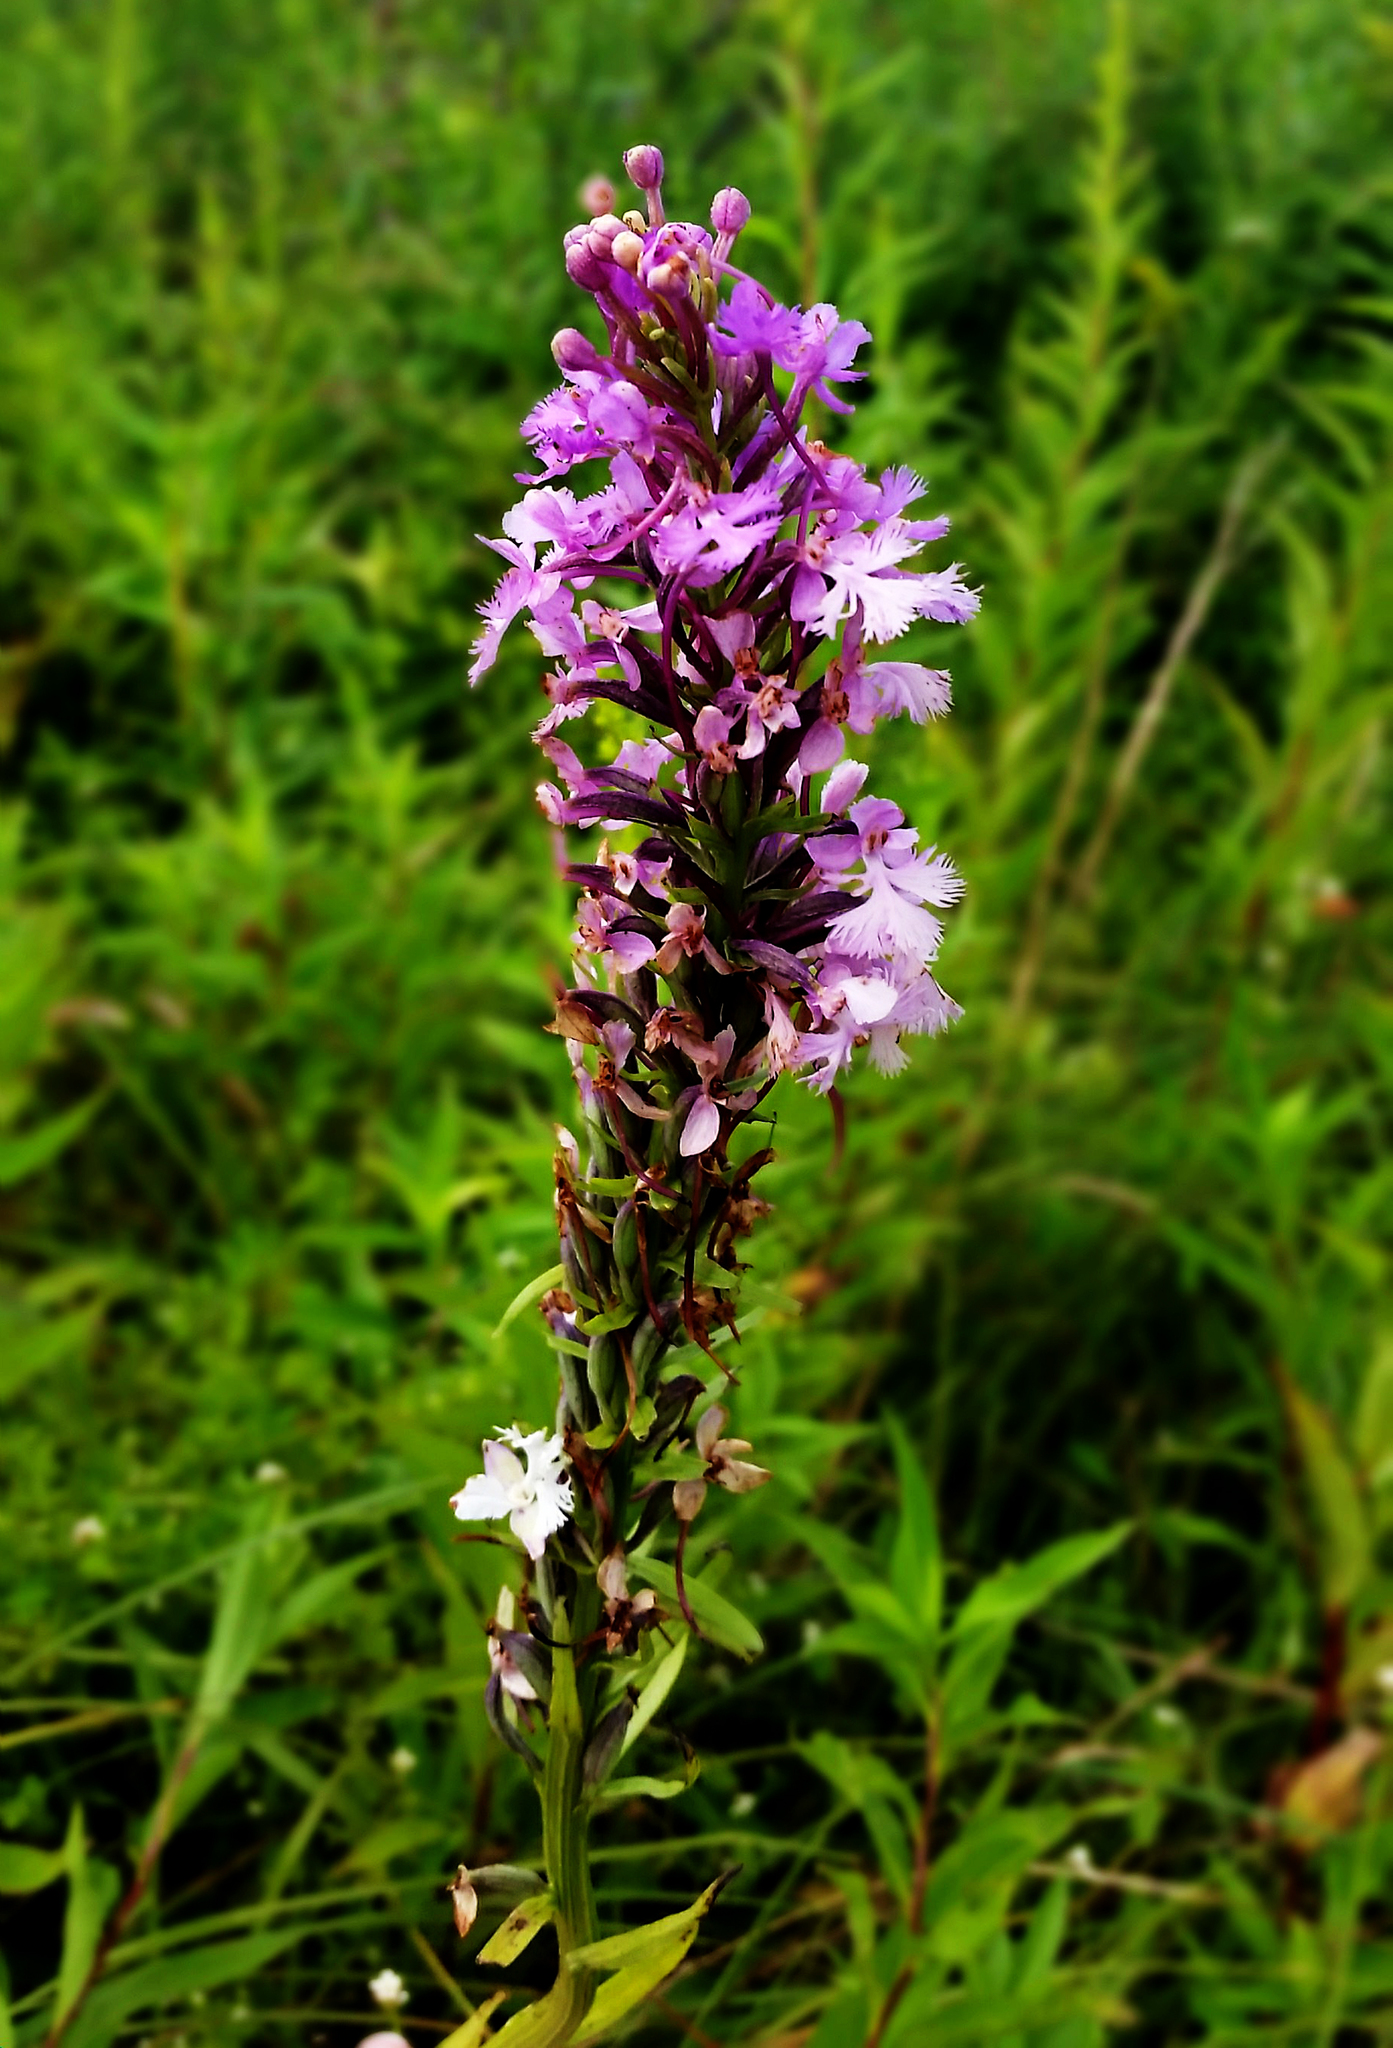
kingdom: Plantae
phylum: Tracheophyta
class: Liliopsida
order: Asparagales
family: Orchidaceae
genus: Platanthera
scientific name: Platanthera psycodes
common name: Lesser purple fringed orchid
